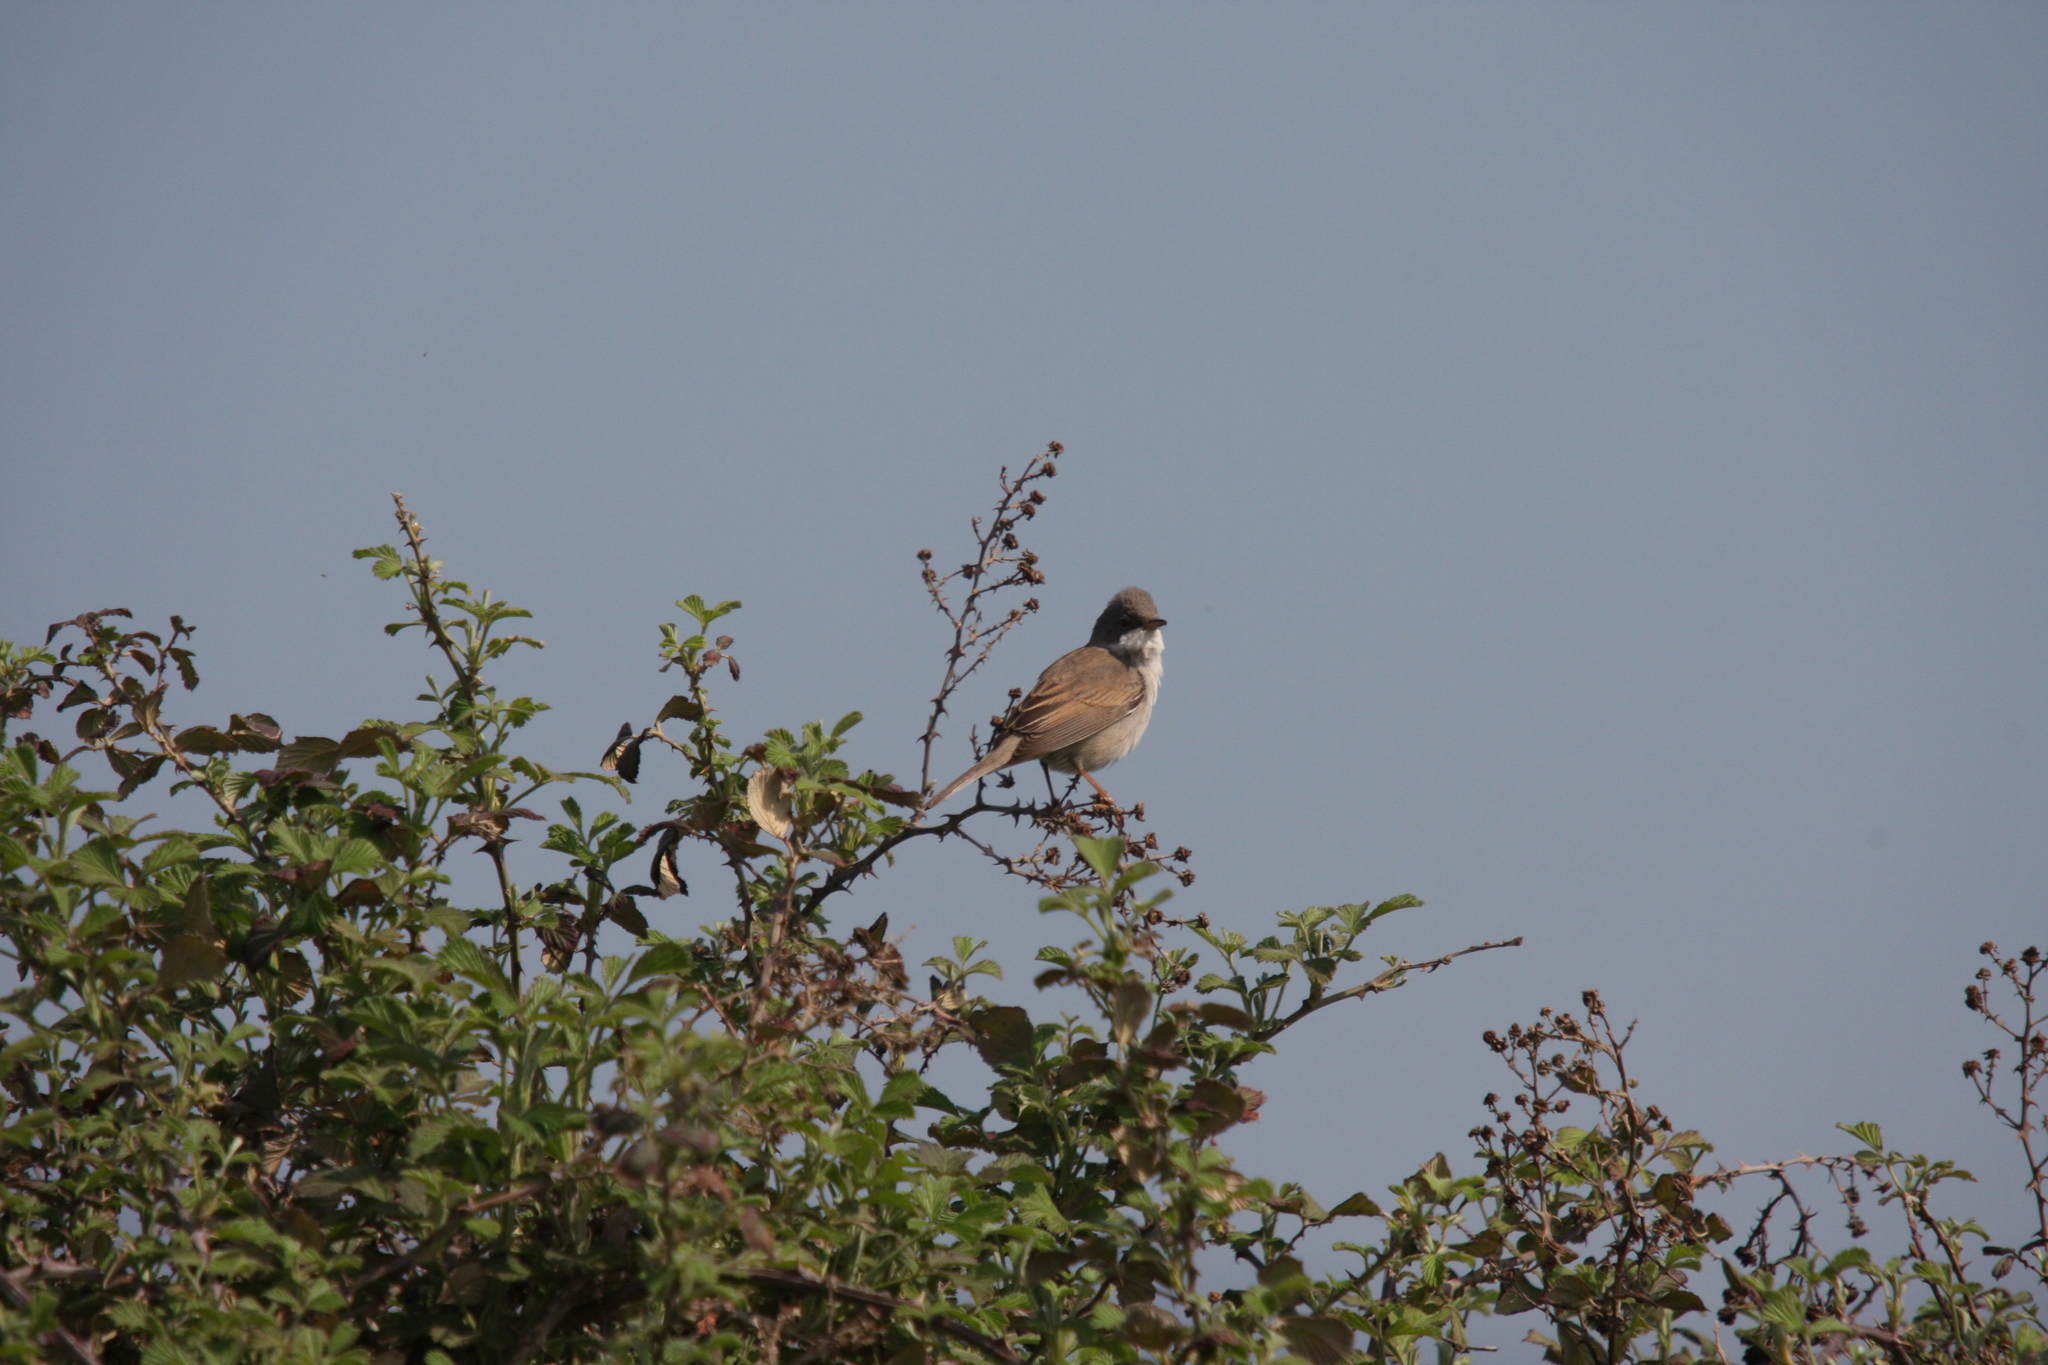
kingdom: Animalia
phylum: Chordata
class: Aves
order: Passeriformes
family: Sylviidae
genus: Sylvia
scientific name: Sylvia communis
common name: Common whitethroat
